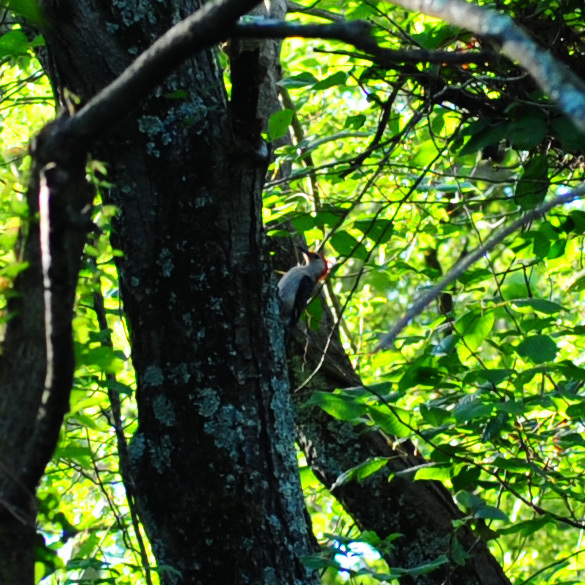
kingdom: Animalia
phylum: Chordata
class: Aves
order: Piciformes
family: Picidae
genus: Melanerpes
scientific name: Melanerpes carolinus
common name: Red-bellied woodpecker
